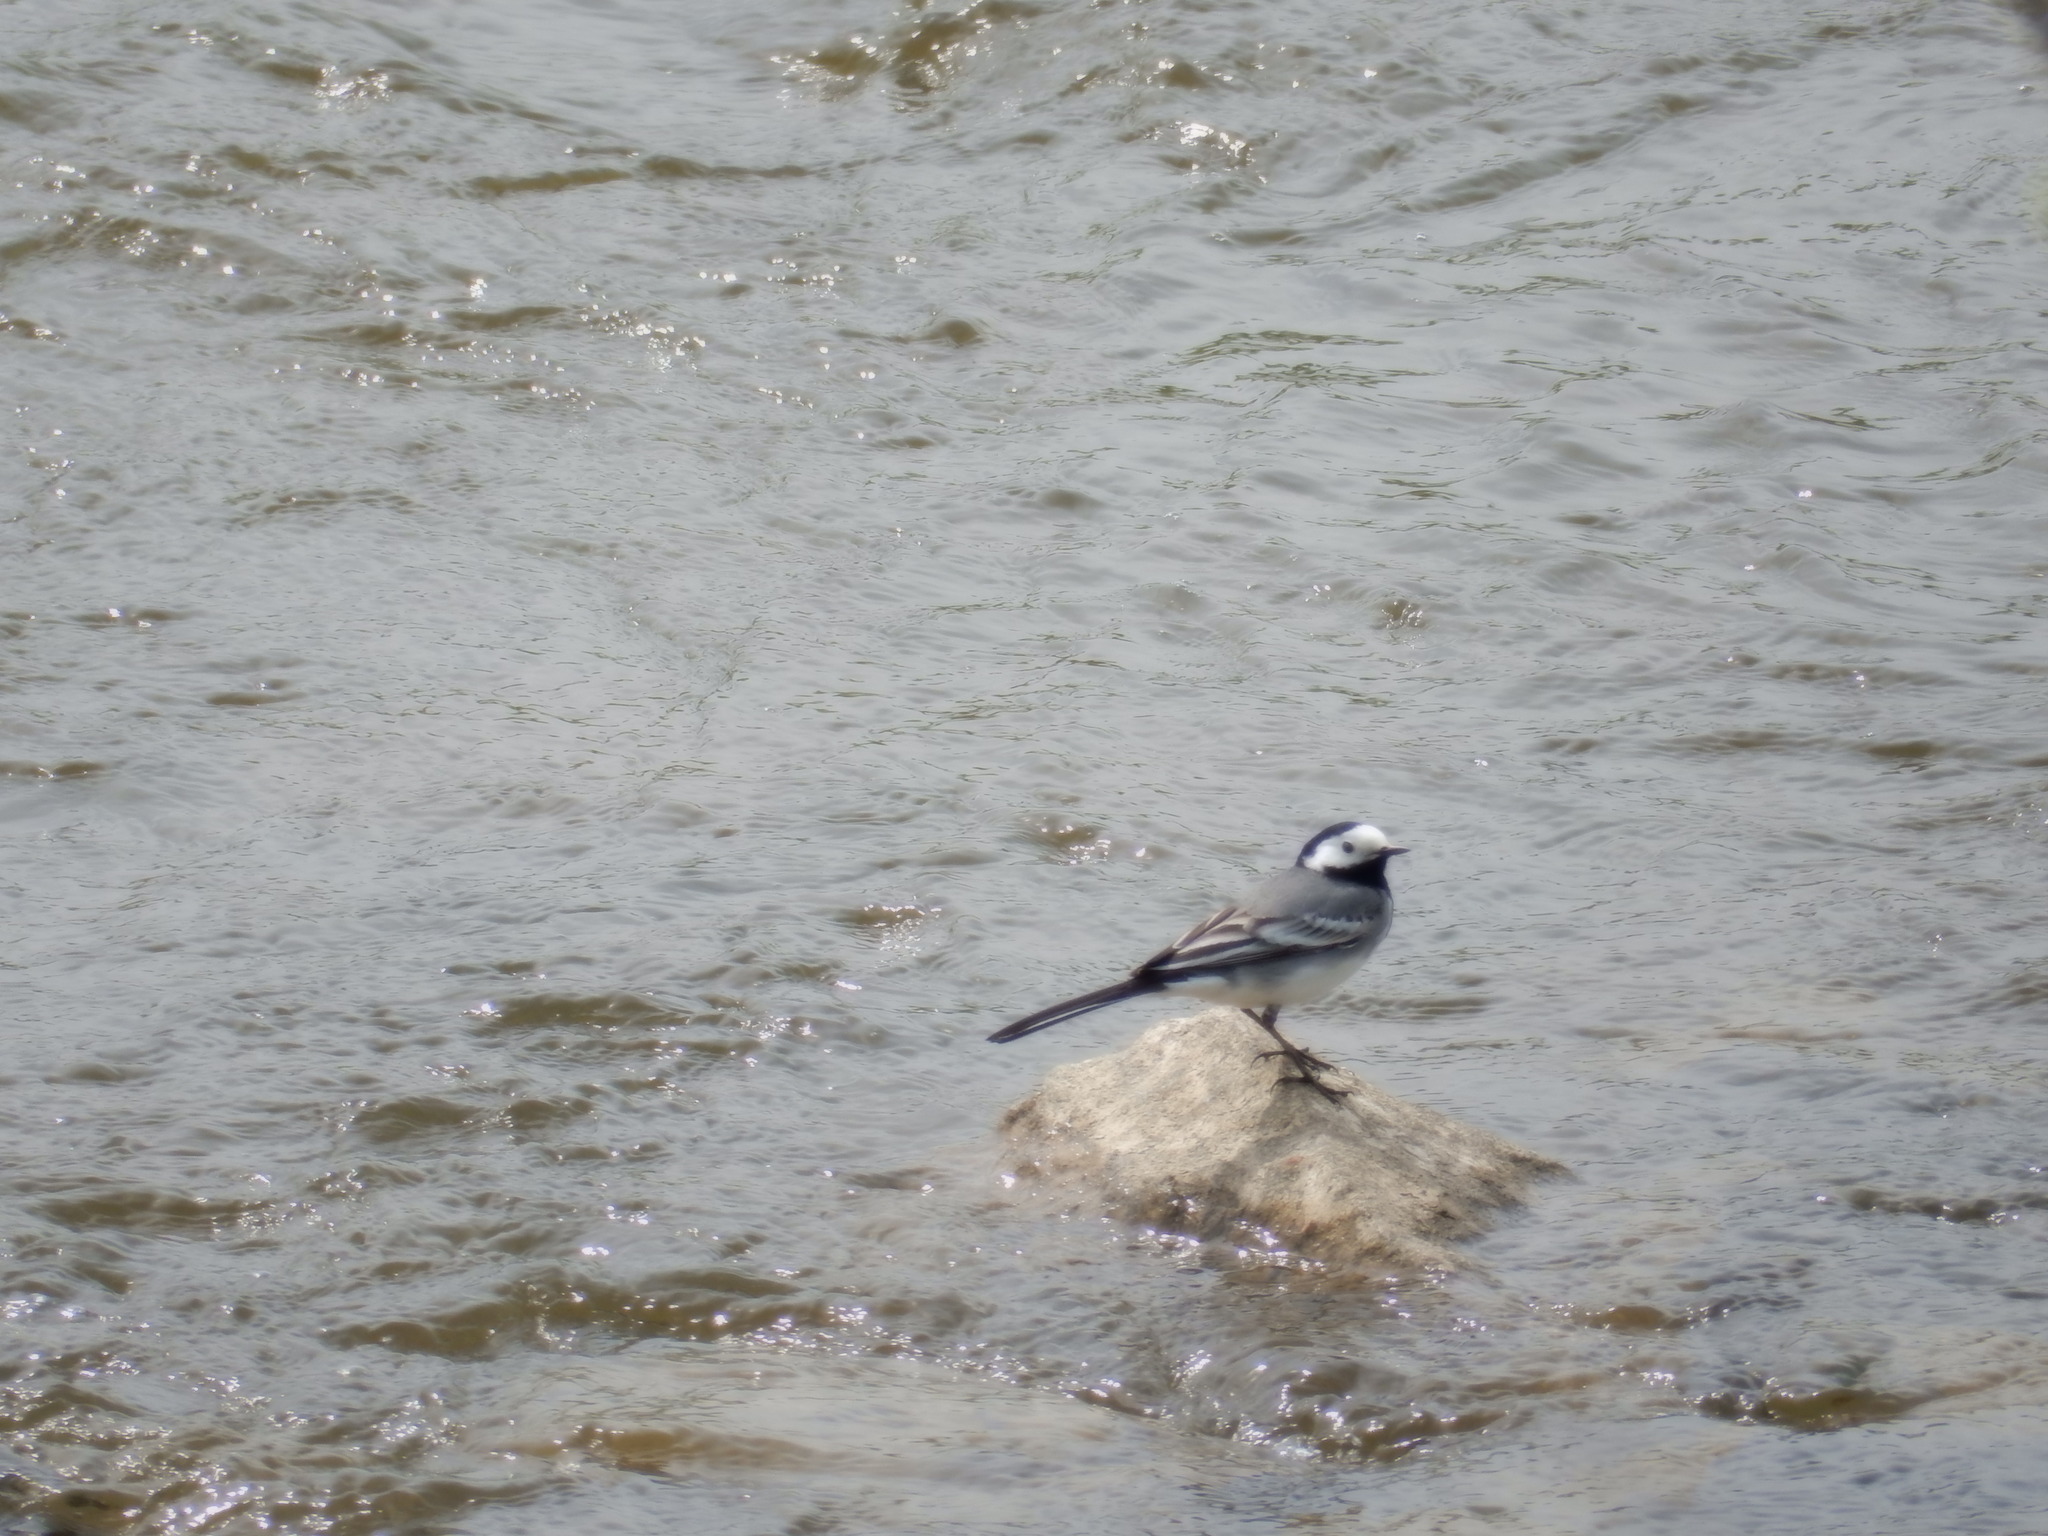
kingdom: Animalia
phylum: Chordata
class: Aves
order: Passeriformes
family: Motacillidae
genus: Motacilla
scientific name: Motacilla alba
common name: White wagtail
